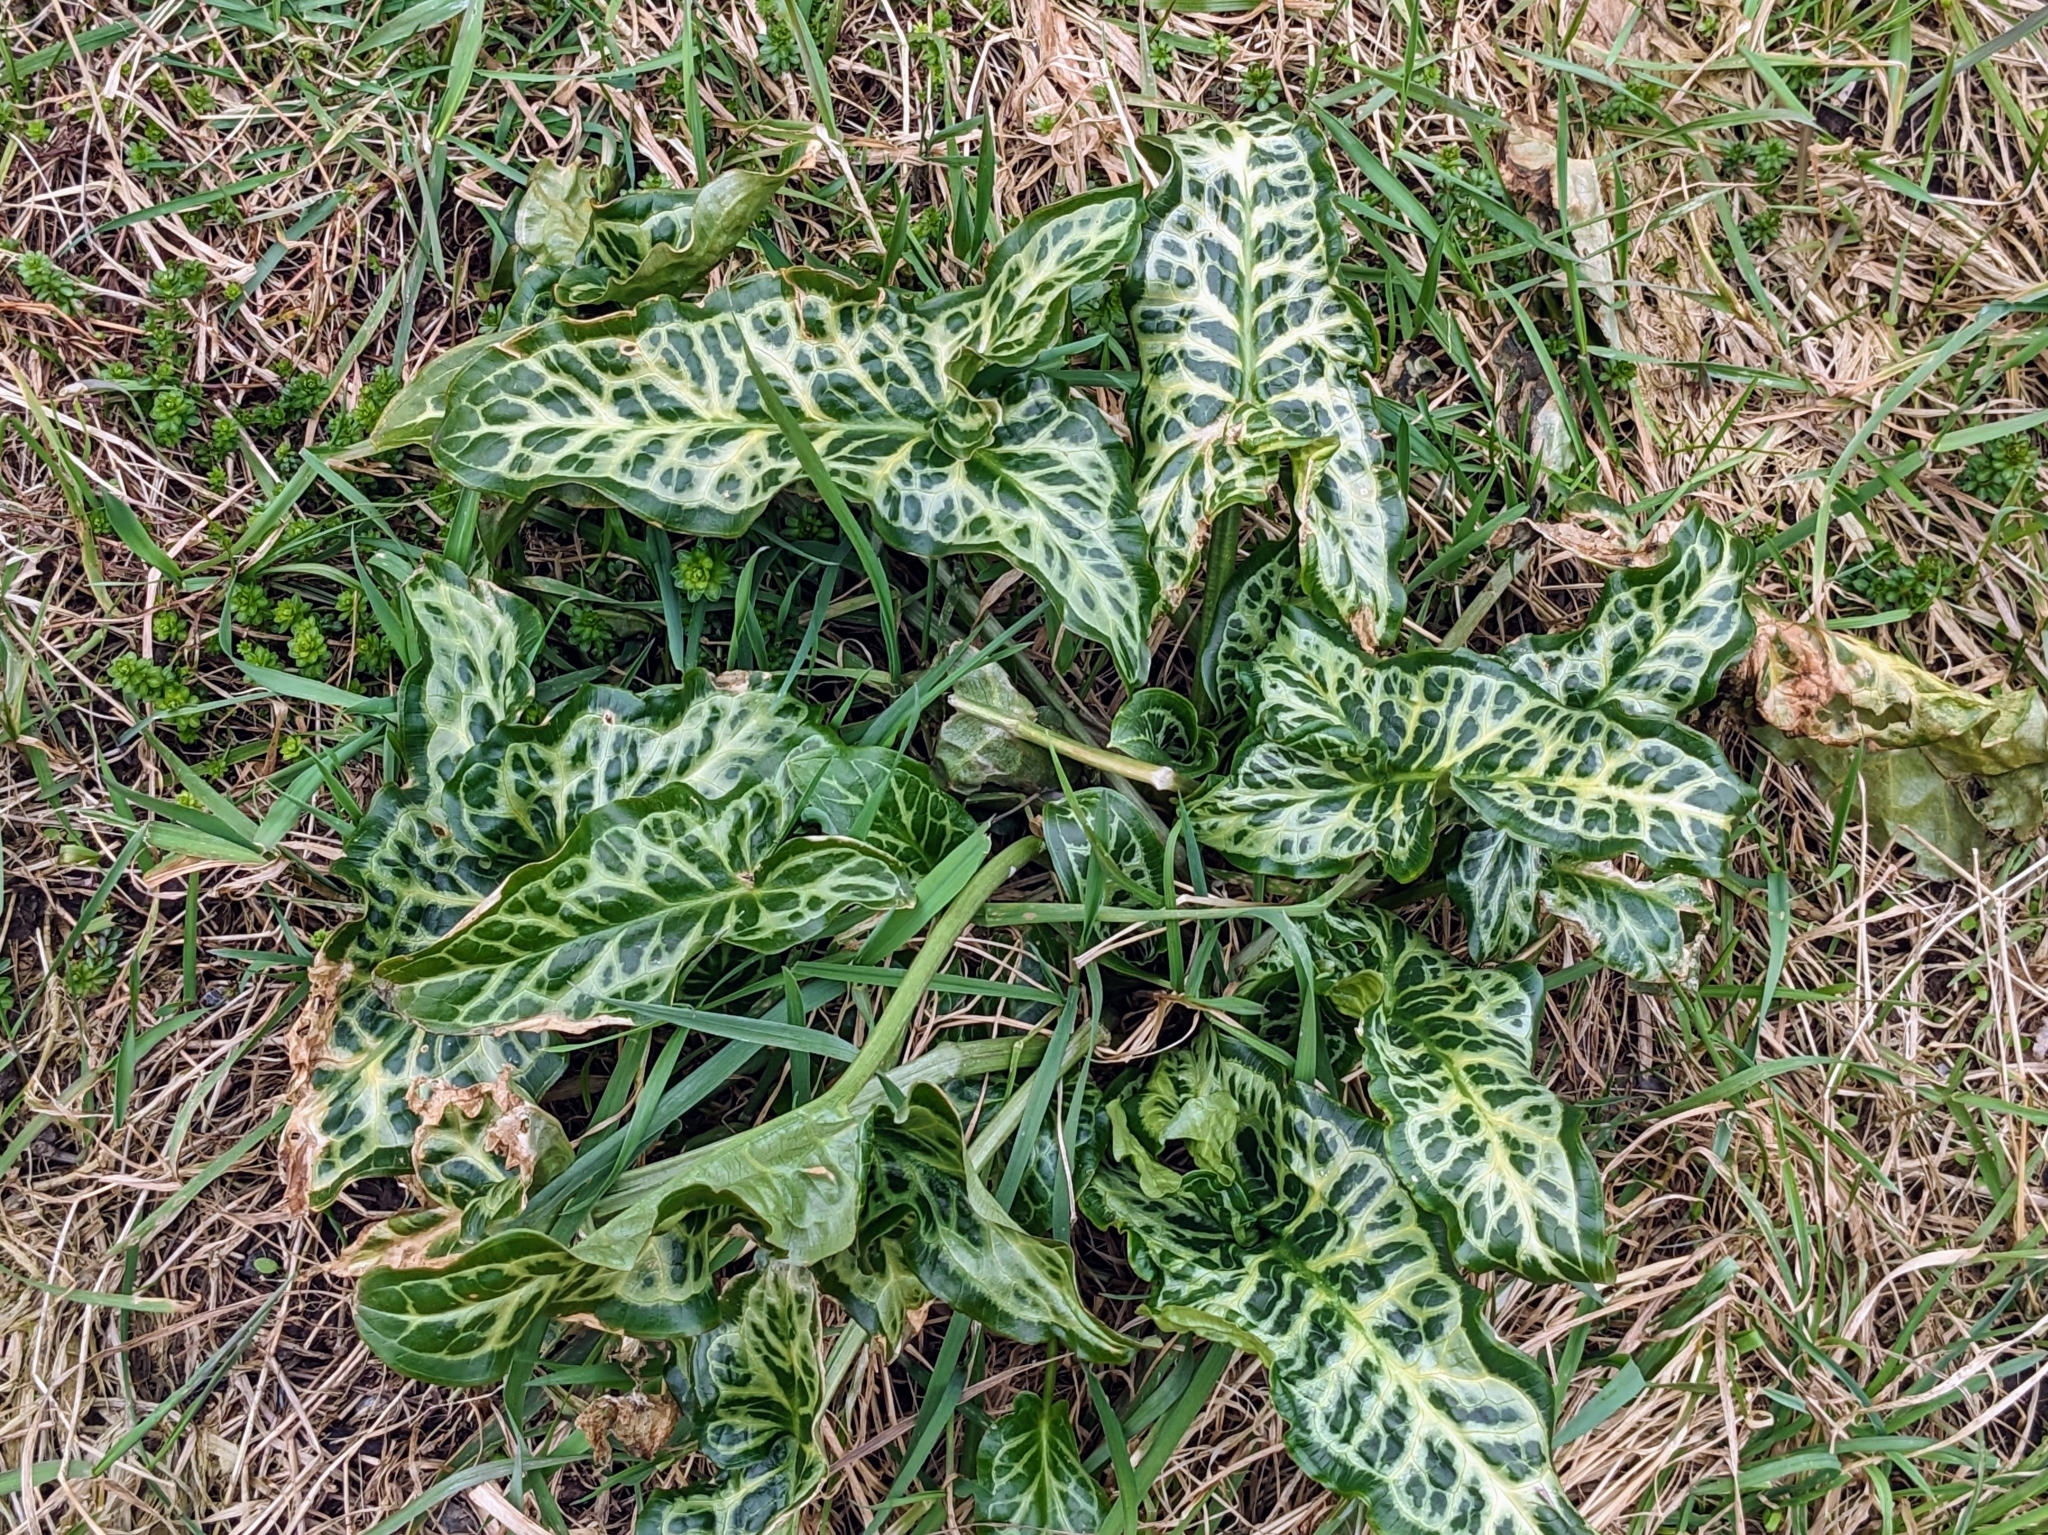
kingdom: Plantae
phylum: Tracheophyta
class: Liliopsida
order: Alismatales
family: Araceae
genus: Arum
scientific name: Arum italicum
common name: Italian lords-and-ladies
